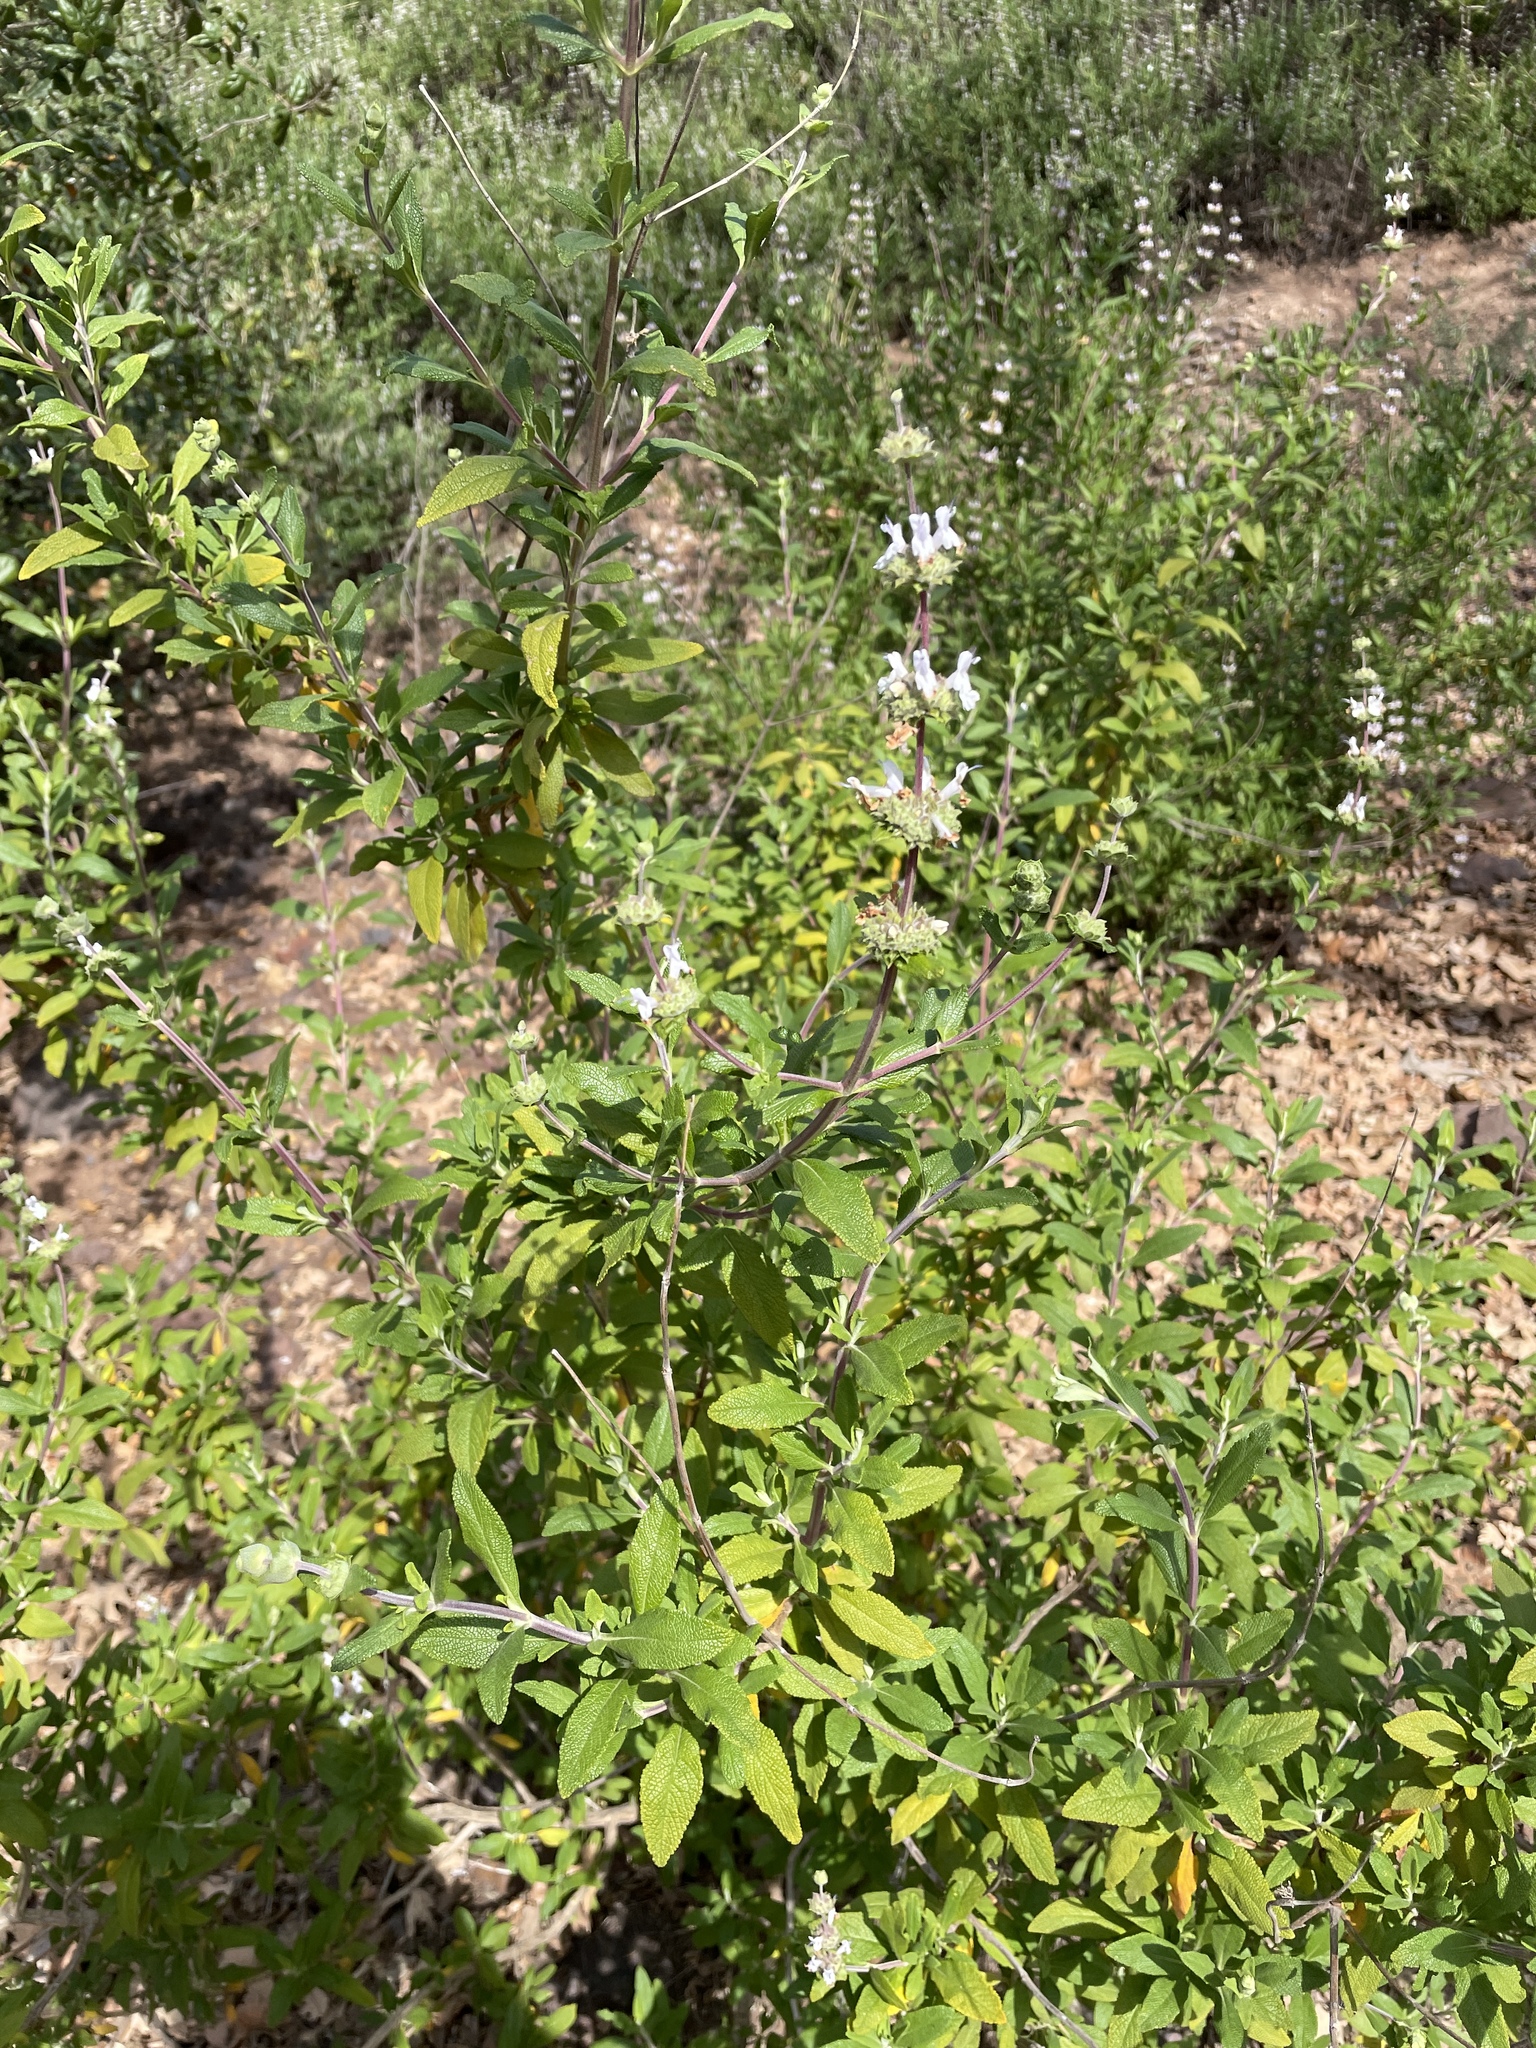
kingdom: Plantae
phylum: Tracheophyta
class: Magnoliopsida
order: Lamiales
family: Lamiaceae
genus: Salvia
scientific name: Salvia mellifera
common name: Black sage
